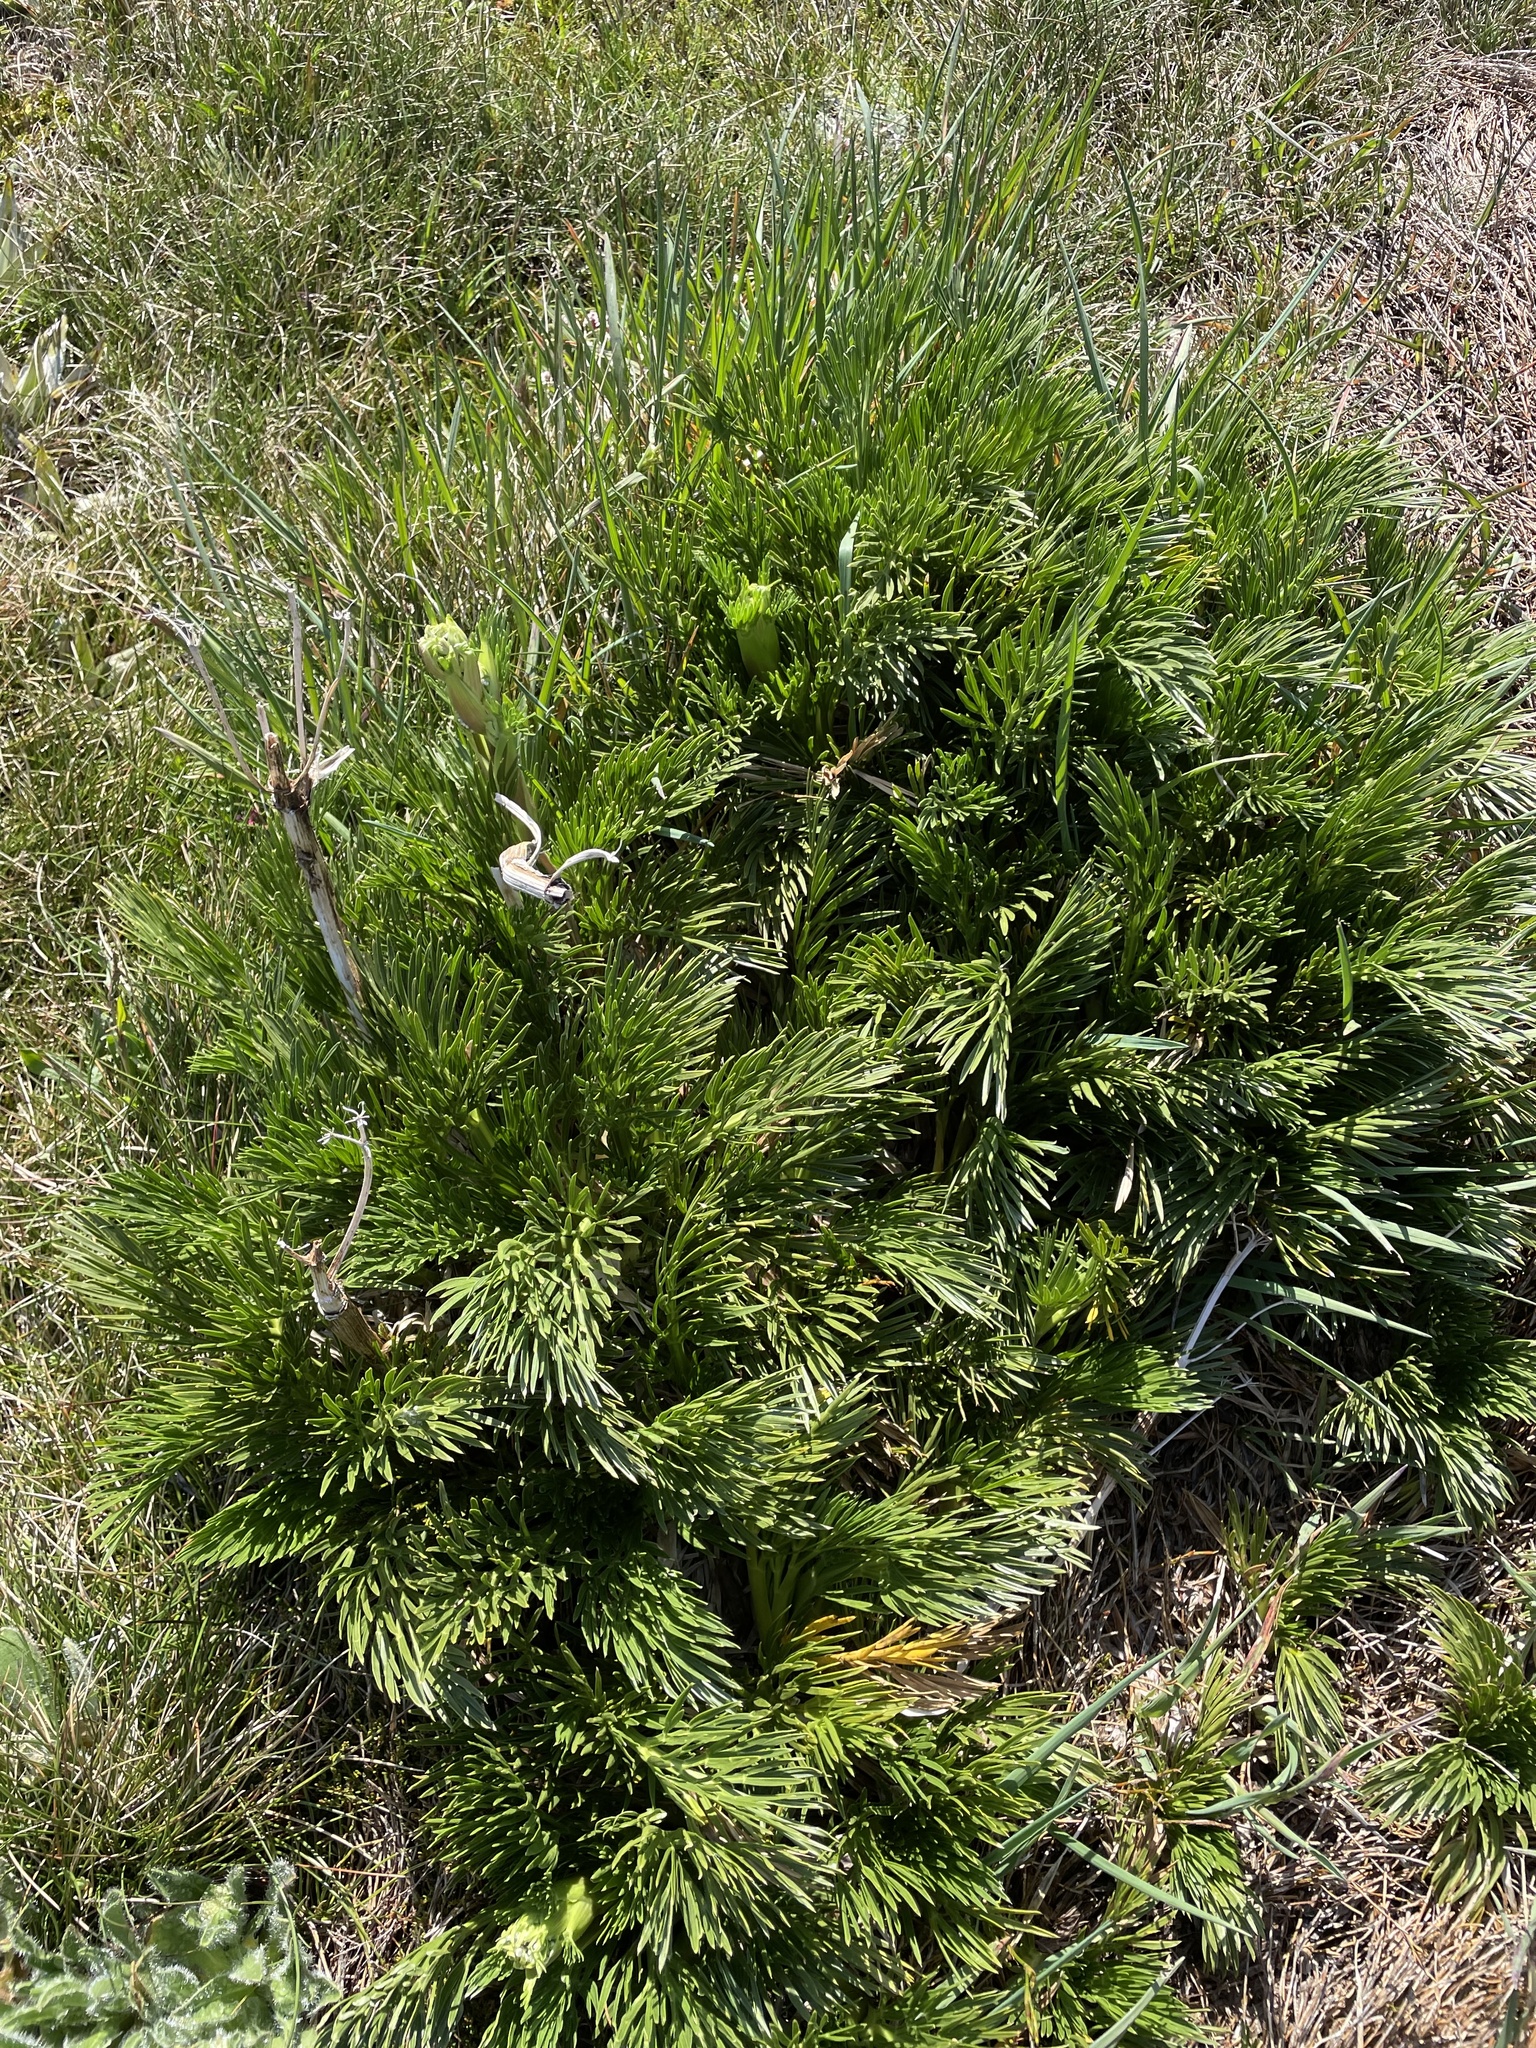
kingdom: Plantae
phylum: Tracheophyta
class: Magnoliopsida
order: Apiales
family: Apiaceae
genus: Aciphylla
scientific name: Aciphylla glacialis
